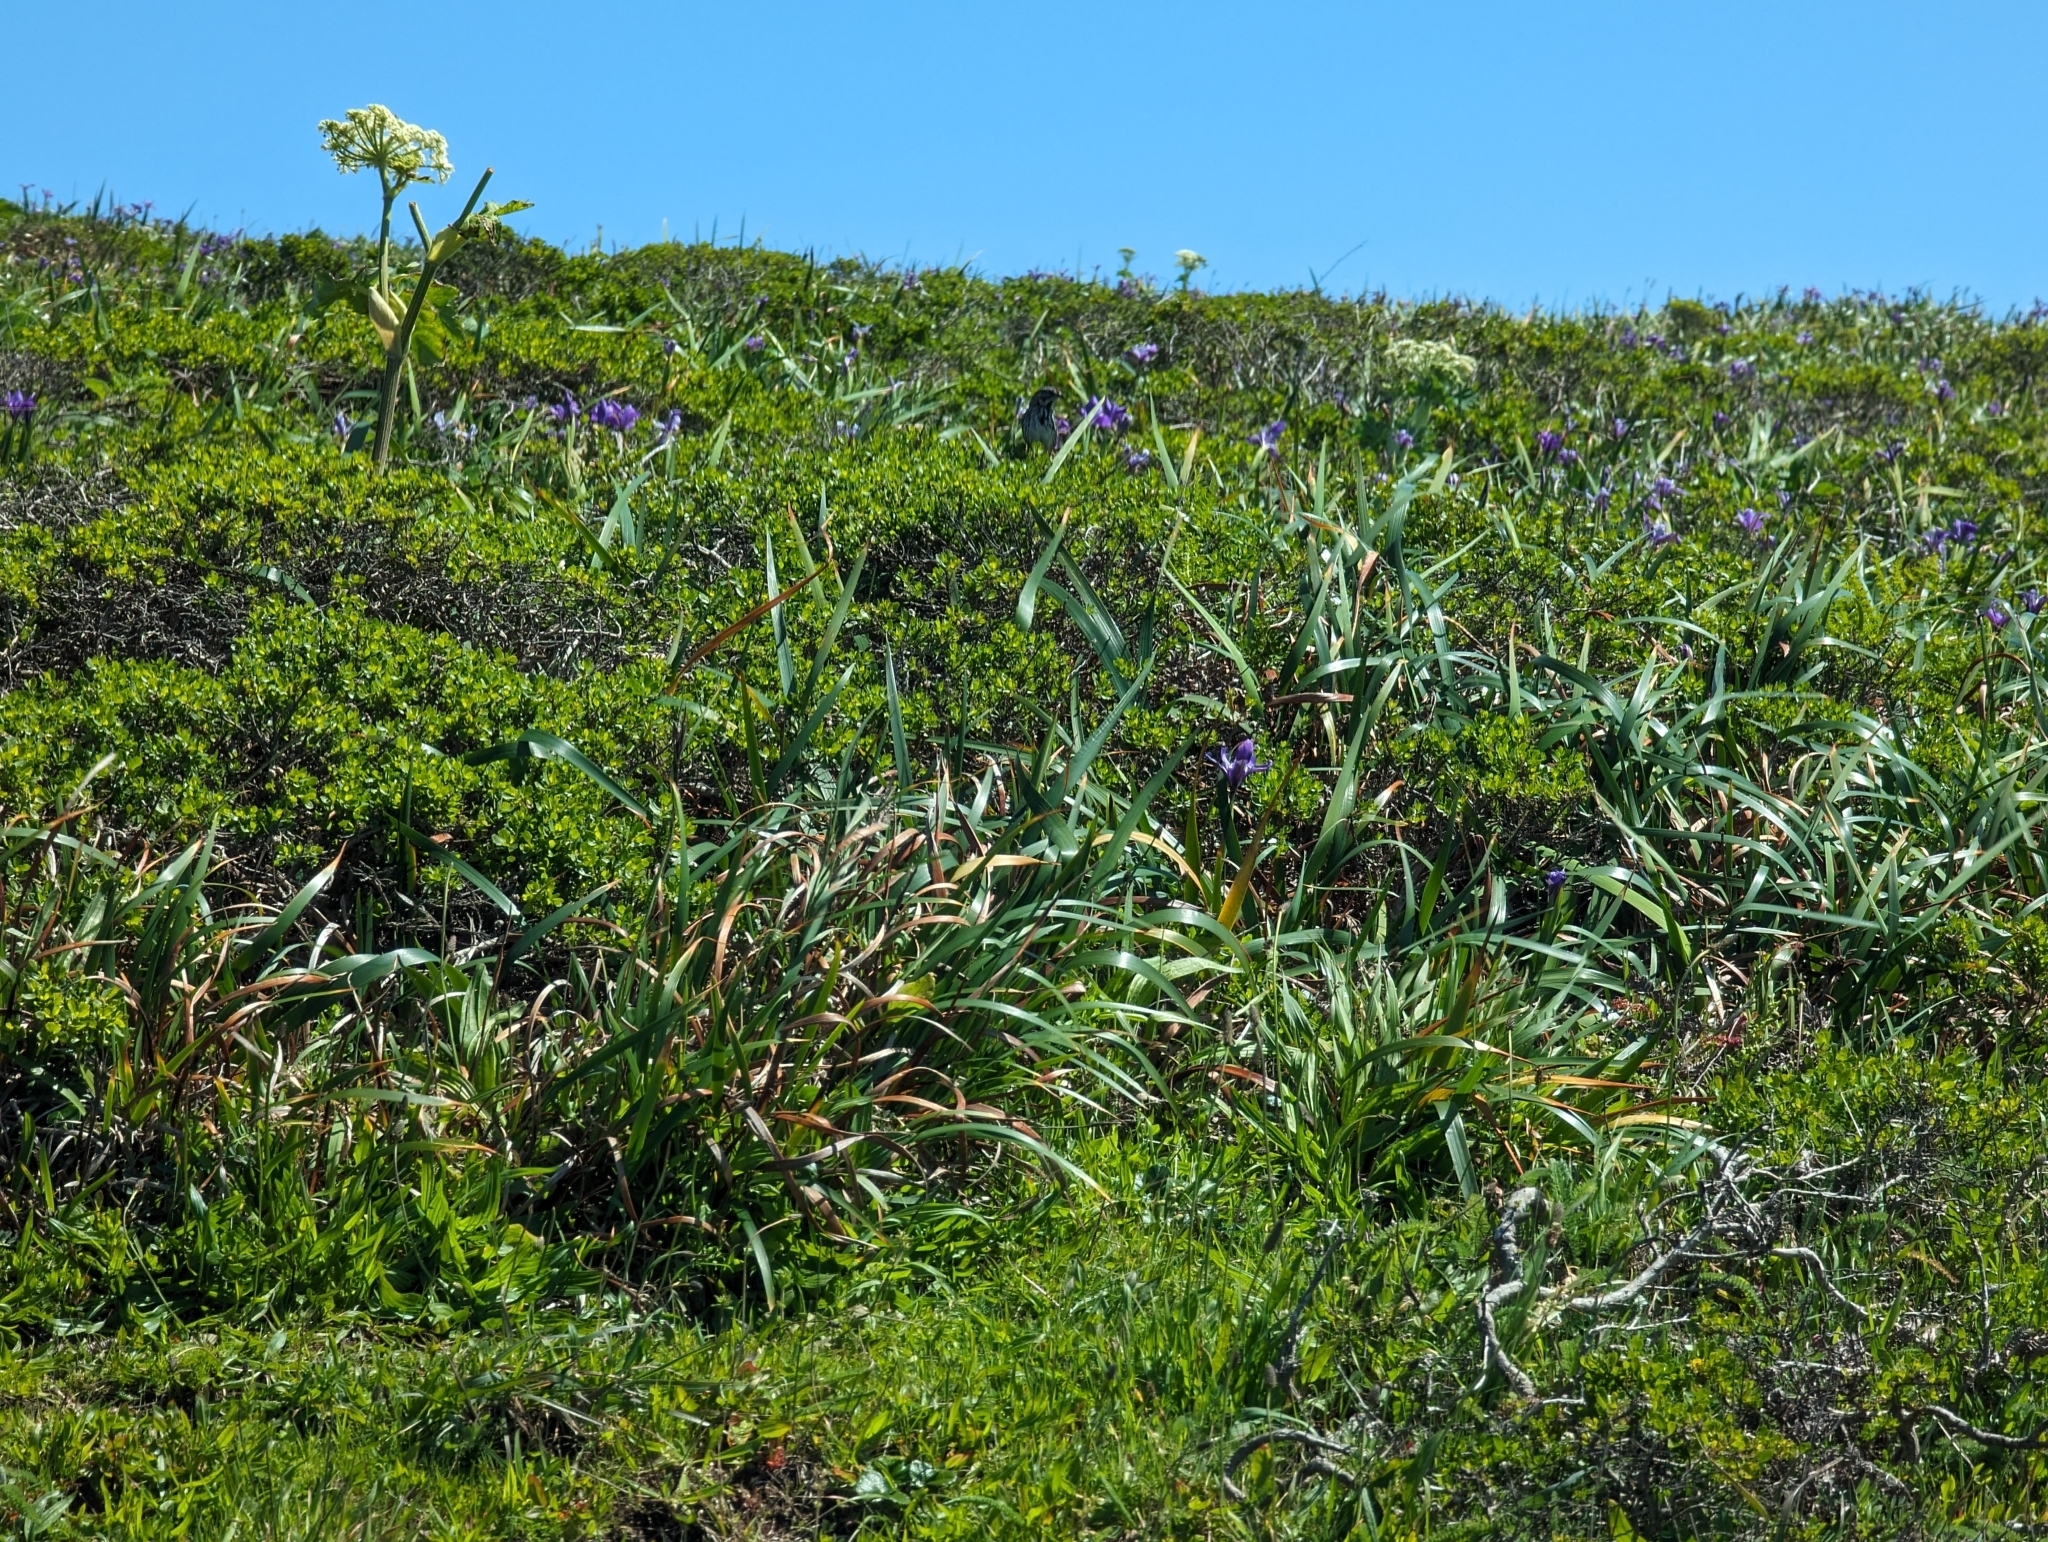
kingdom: Animalia
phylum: Chordata
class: Aves
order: Passeriformes
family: Passerellidae
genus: Melospiza
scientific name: Melospiza melodia
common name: Song sparrow
